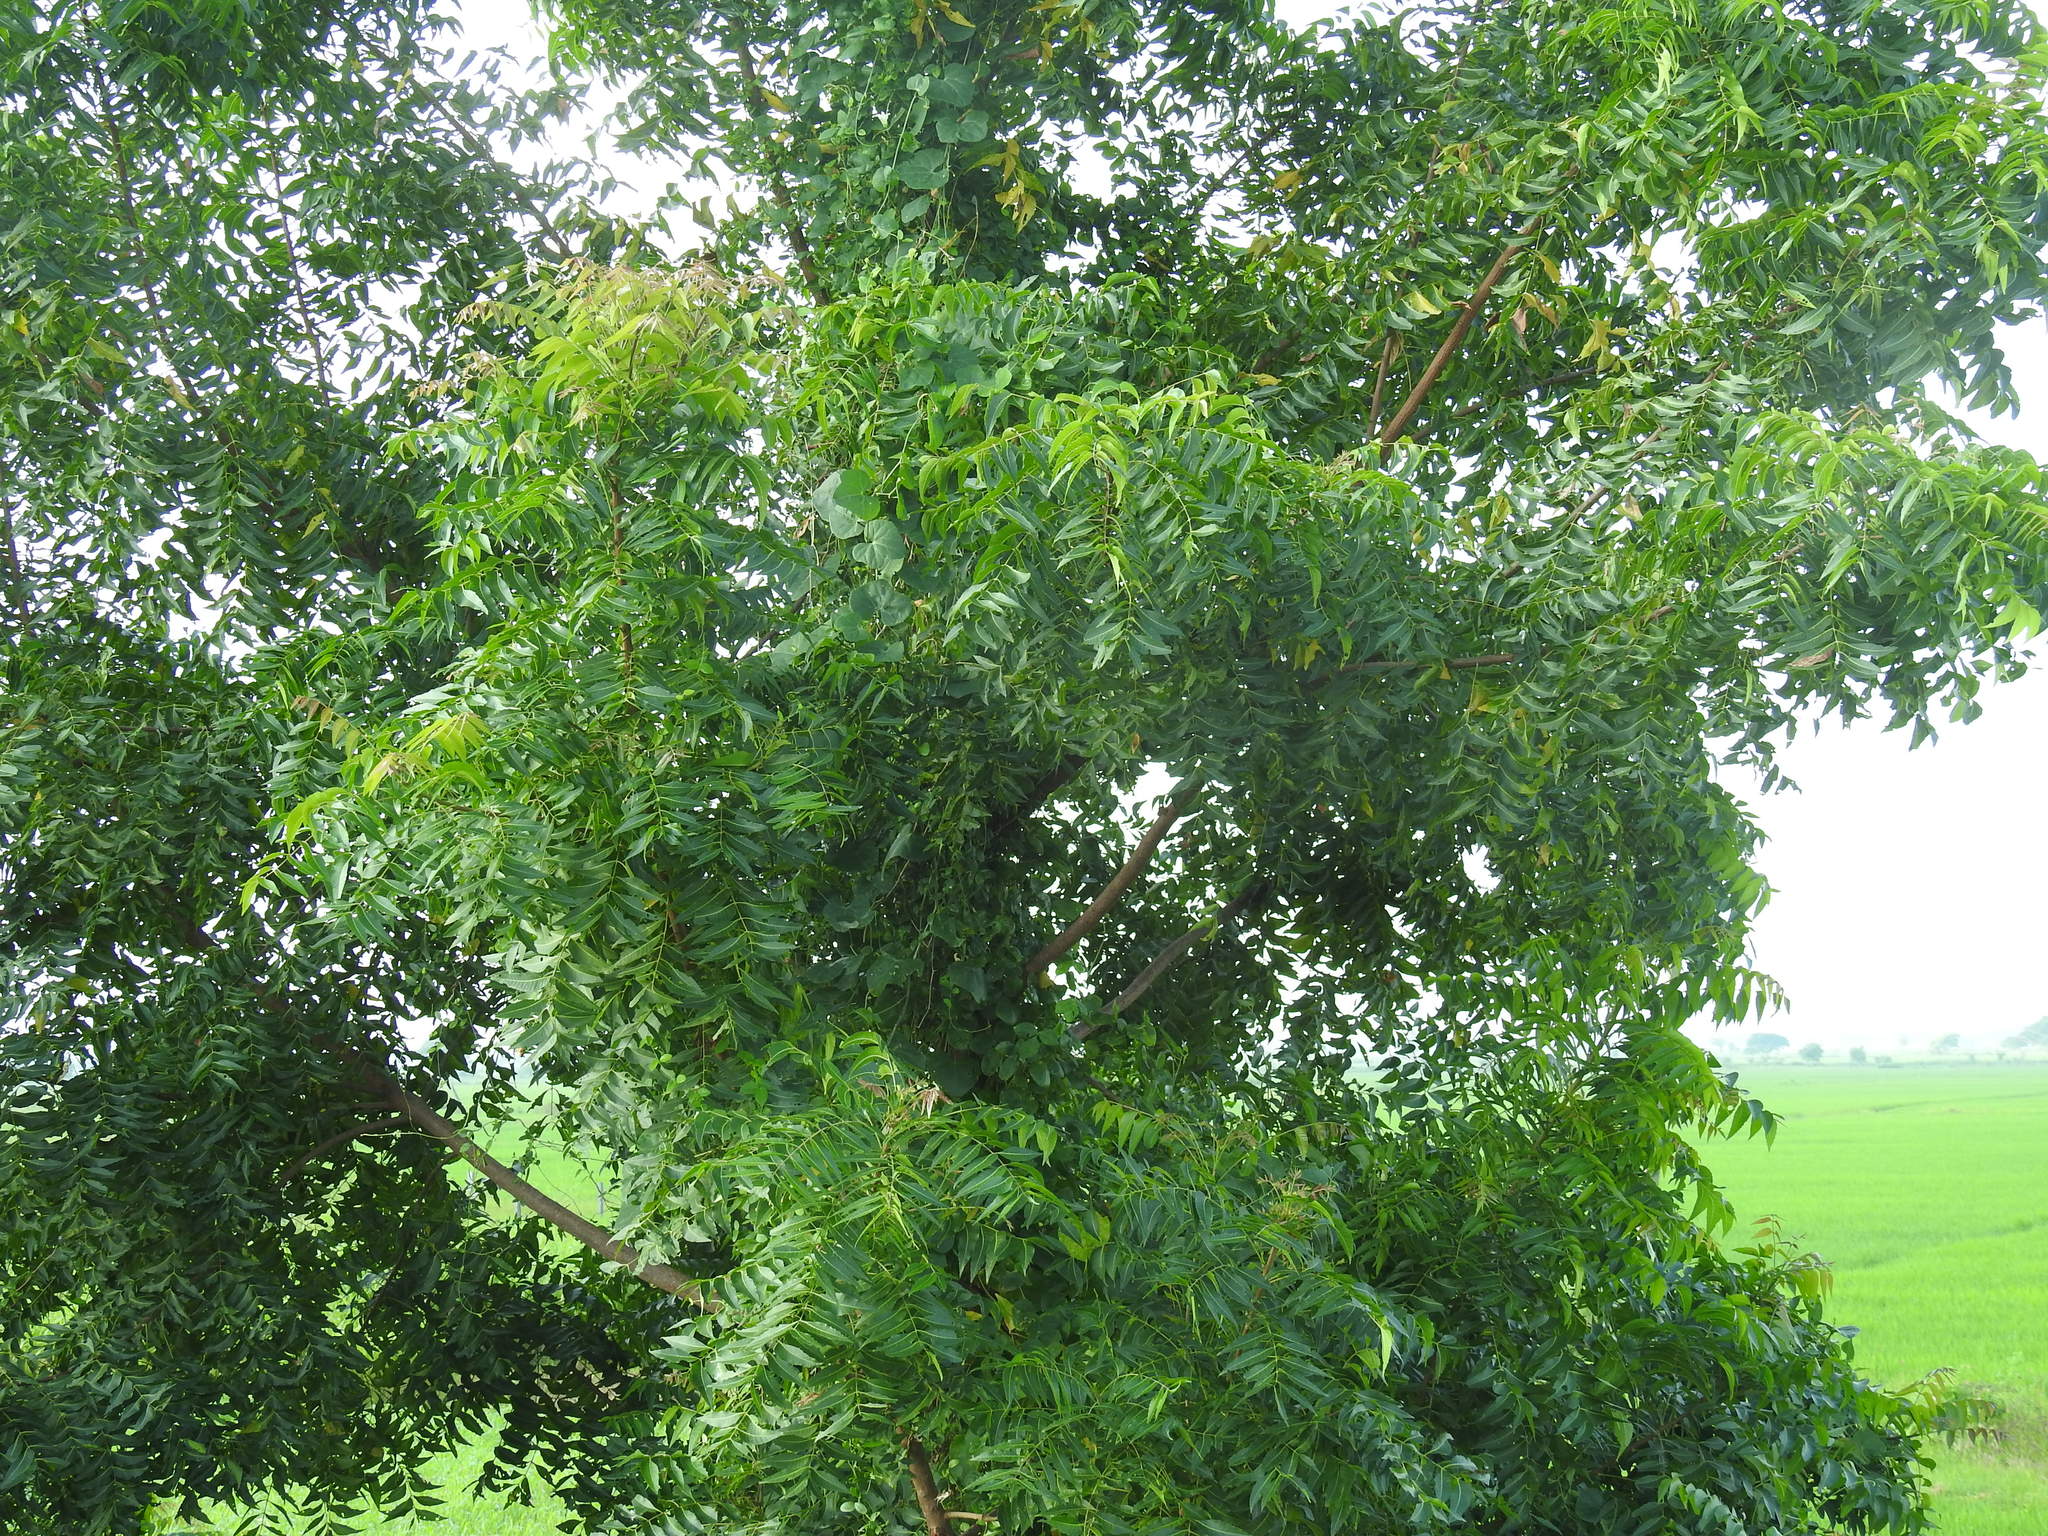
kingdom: Plantae
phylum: Tracheophyta
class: Magnoliopsida
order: Sapindales
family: Meliaceae
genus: Azadirachta
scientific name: Azadirachta indica
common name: Neem
